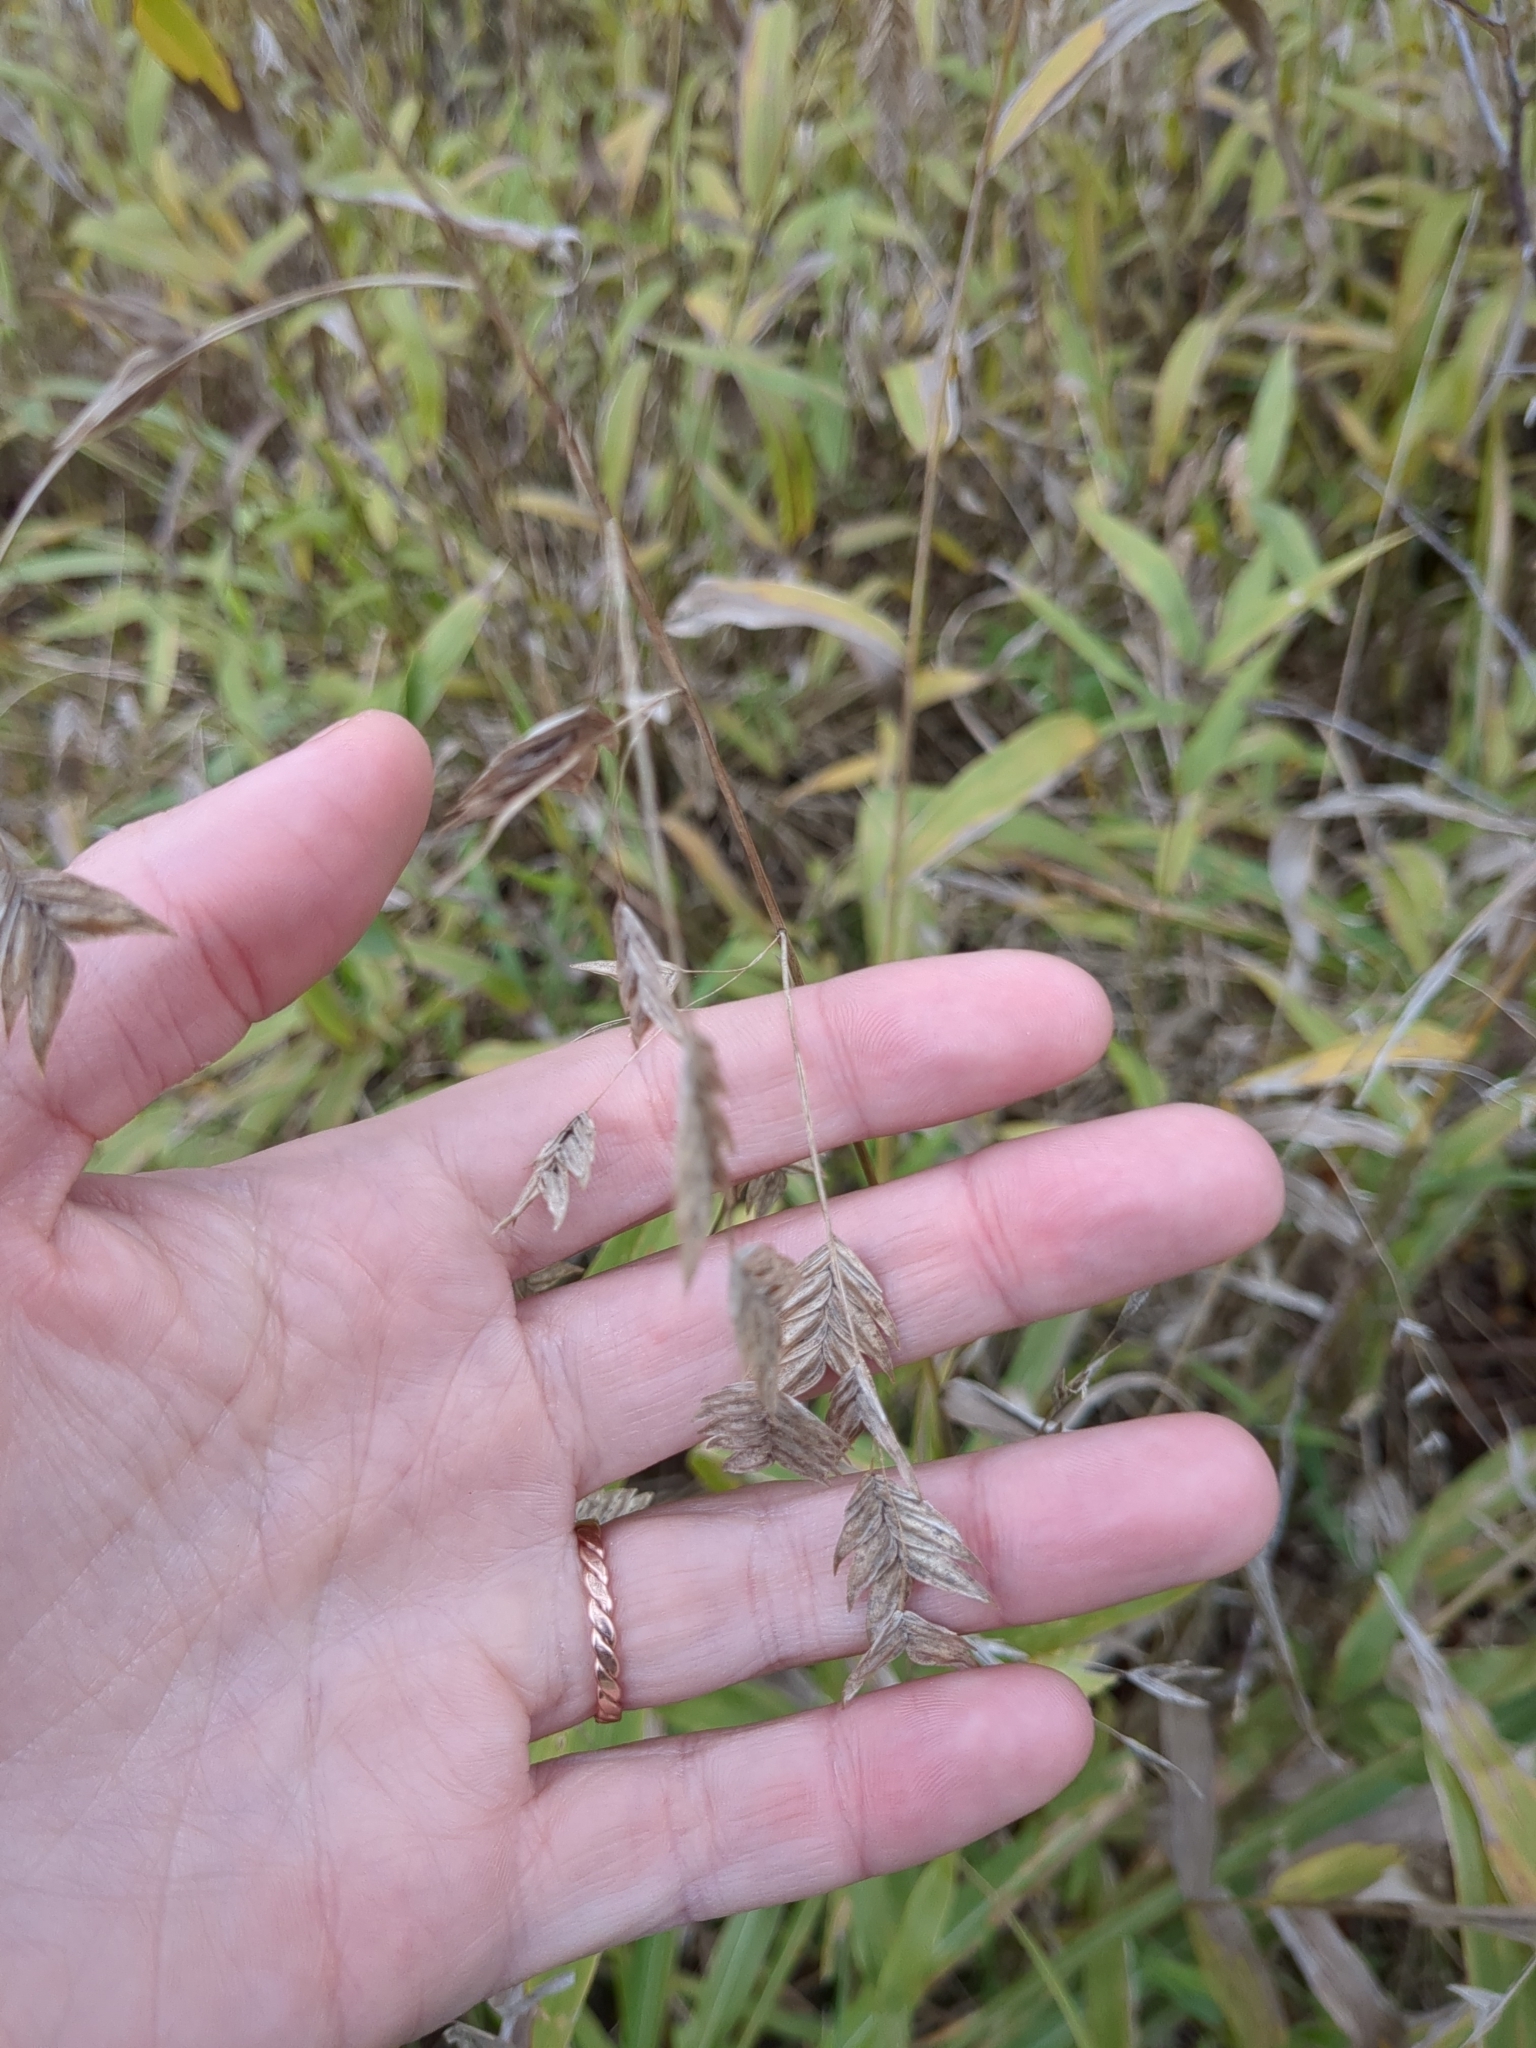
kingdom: Plantae
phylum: Tracheophyta
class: Liliopsida
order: Poales
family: Poaceae
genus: Chasmanthium
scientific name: Chasmanthium latifolium
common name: Broad-leaved chasmanthium
